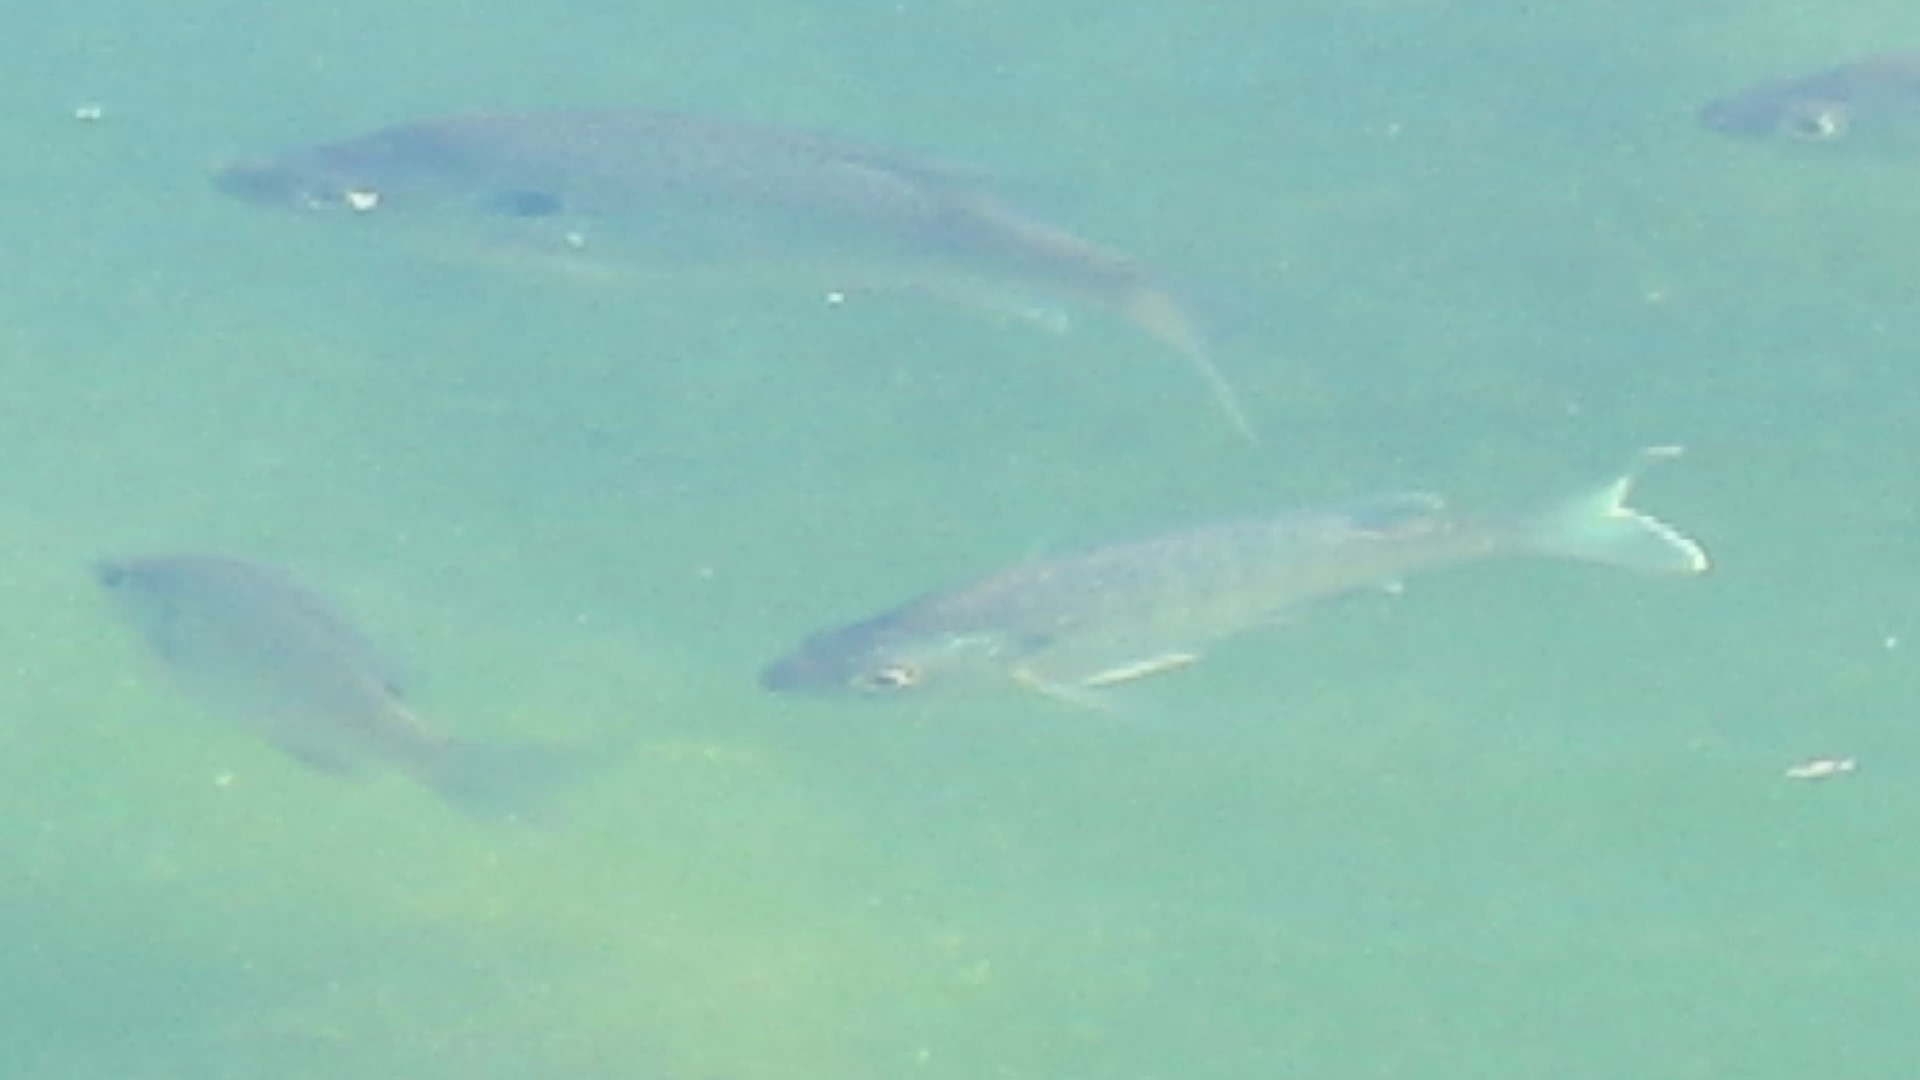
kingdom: Animalia
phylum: Chordata
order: Perciformes
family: Centrarchidae
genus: Lepomis
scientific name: Lepomis macrochirus
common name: Bluegill
